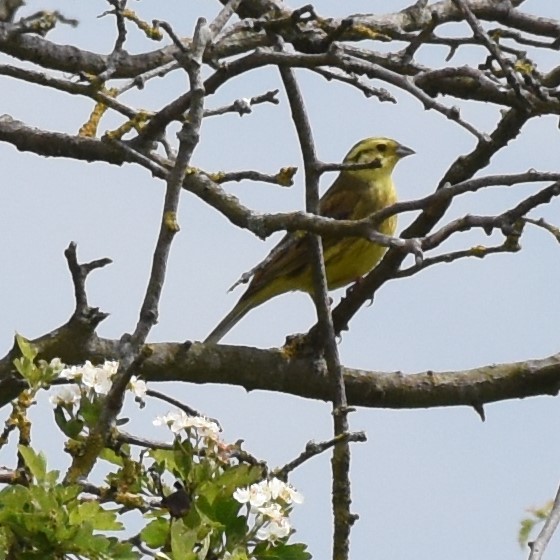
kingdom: Animalia
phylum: Chordata
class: Aves
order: Passeriformes
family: Emberizidae
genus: Emberiza
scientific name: Emberiza citrinella
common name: Yellowhammer
